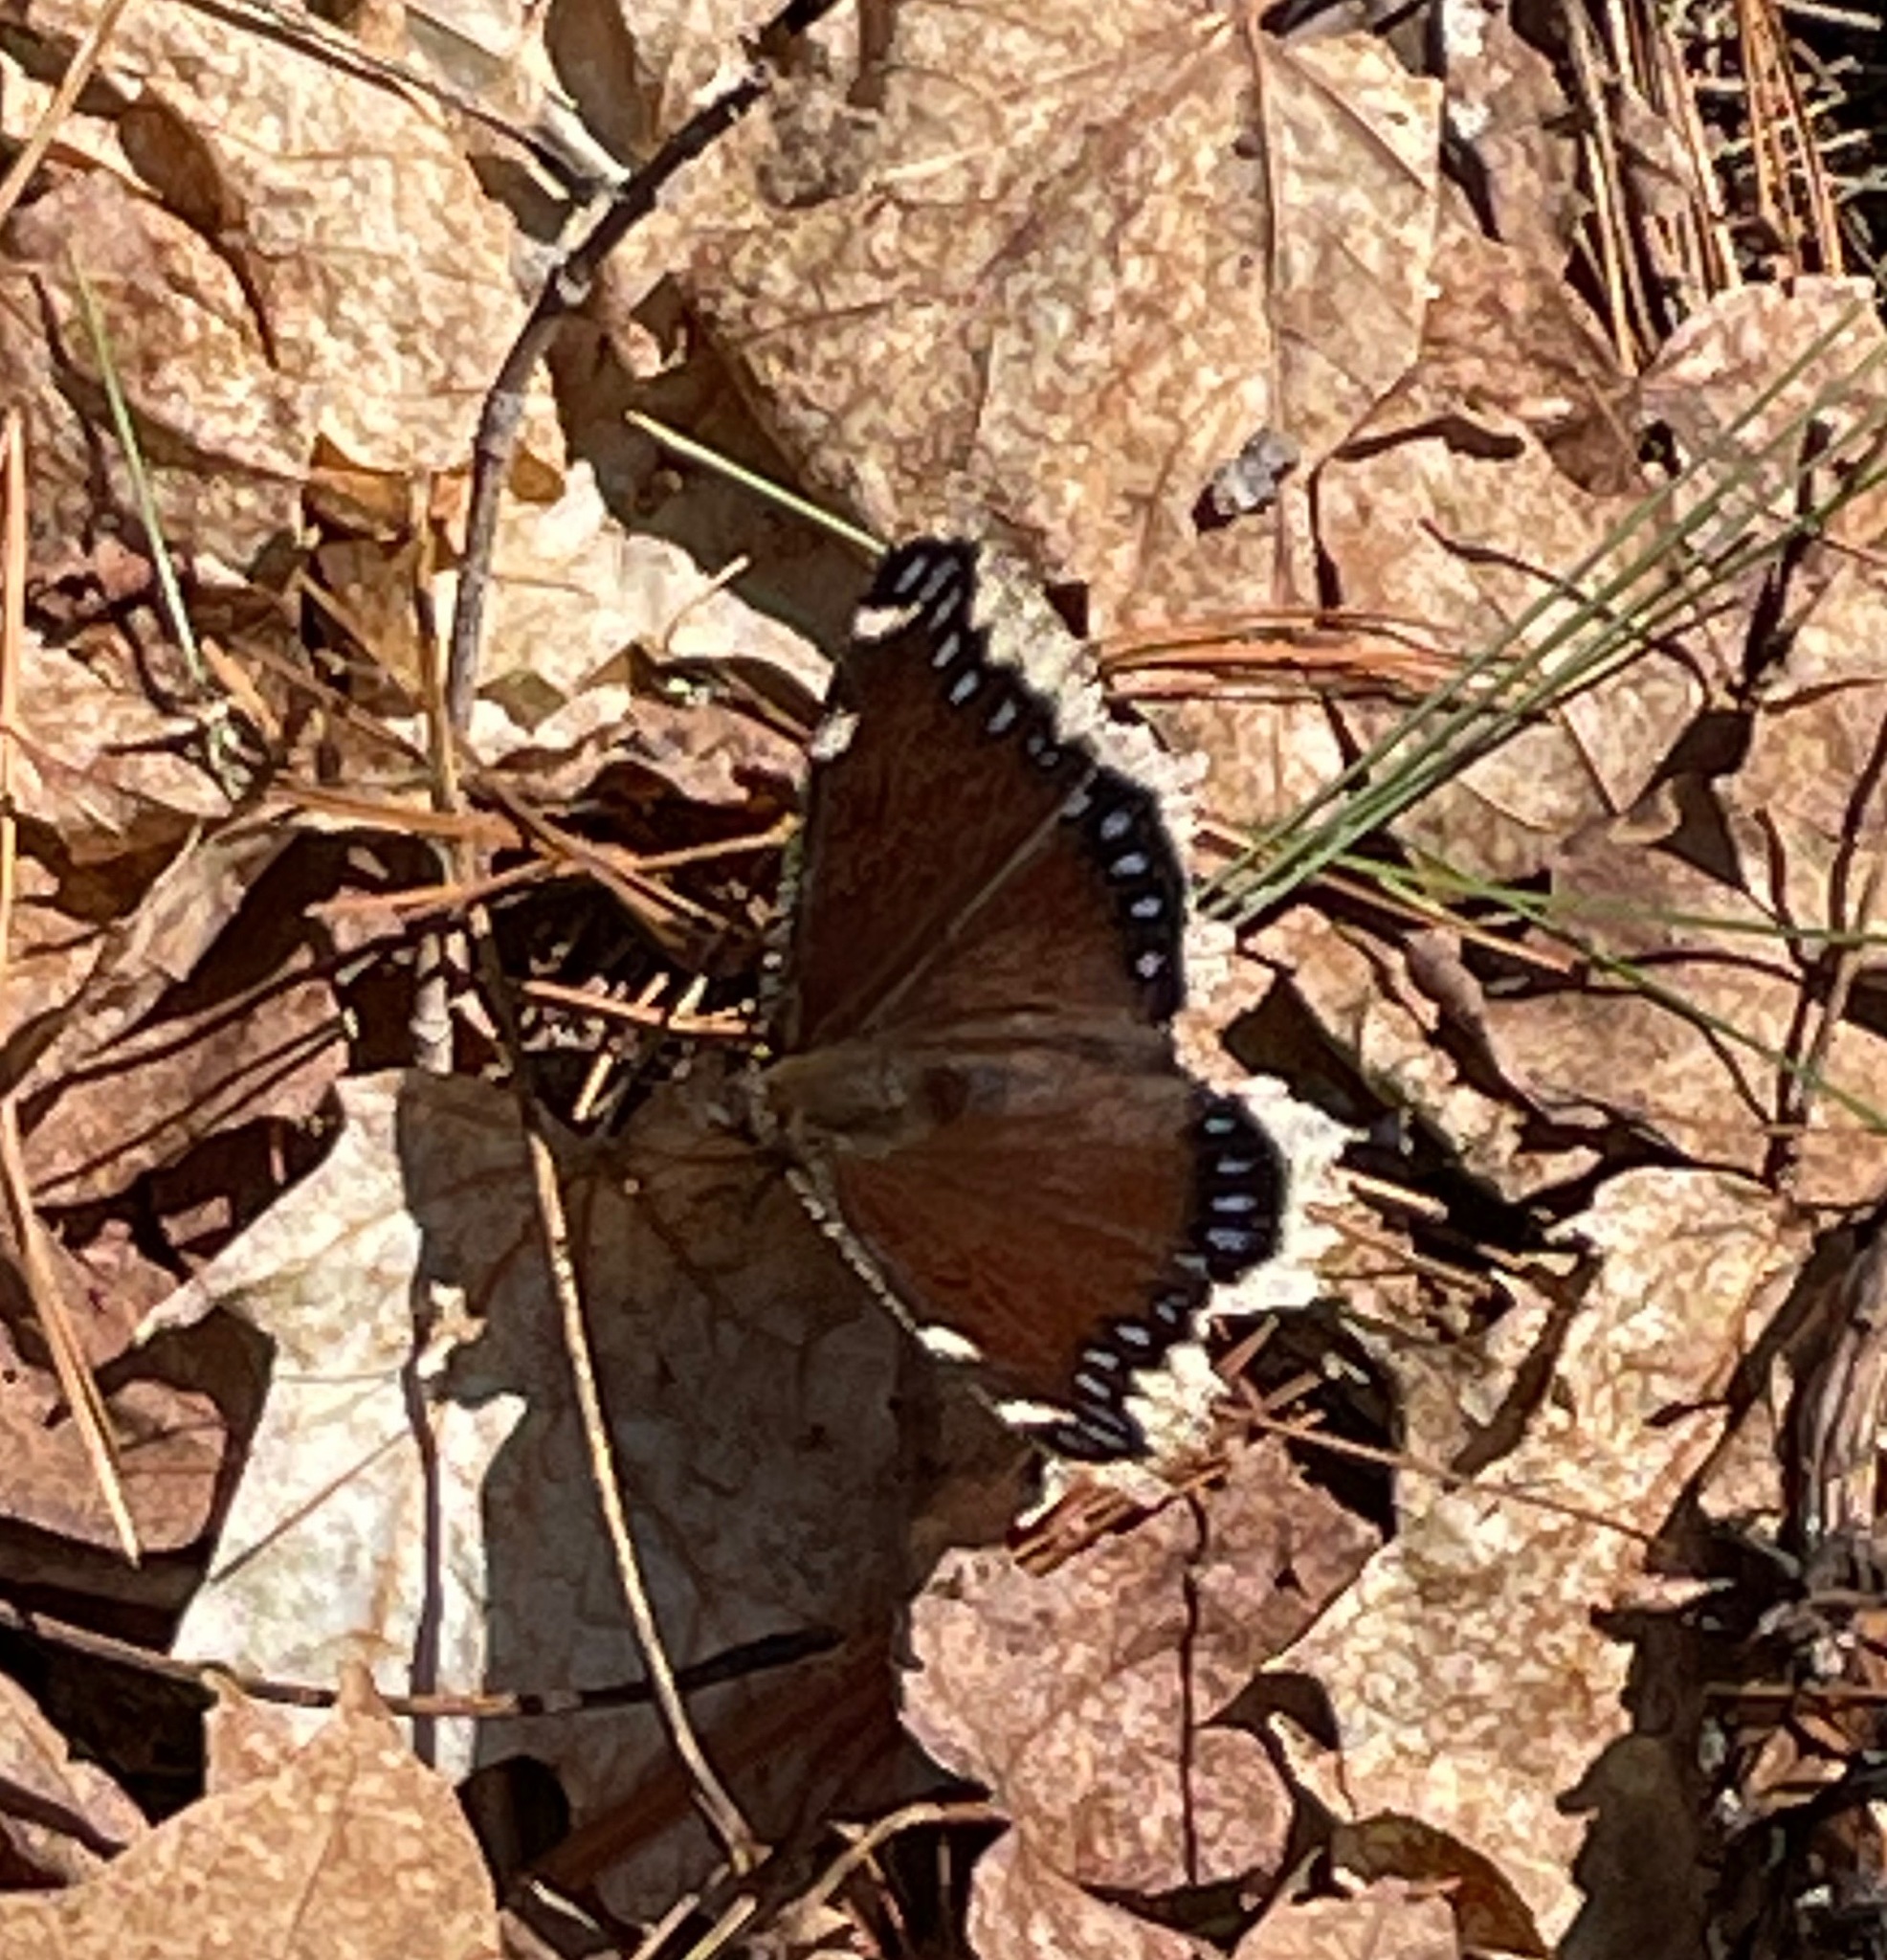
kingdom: Animalia
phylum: Arthropoda
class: Insecta
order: Lepidoptera
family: Nymphalidae
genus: Nymphalis
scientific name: Nymphalis antiopa
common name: Camberwell beauty
